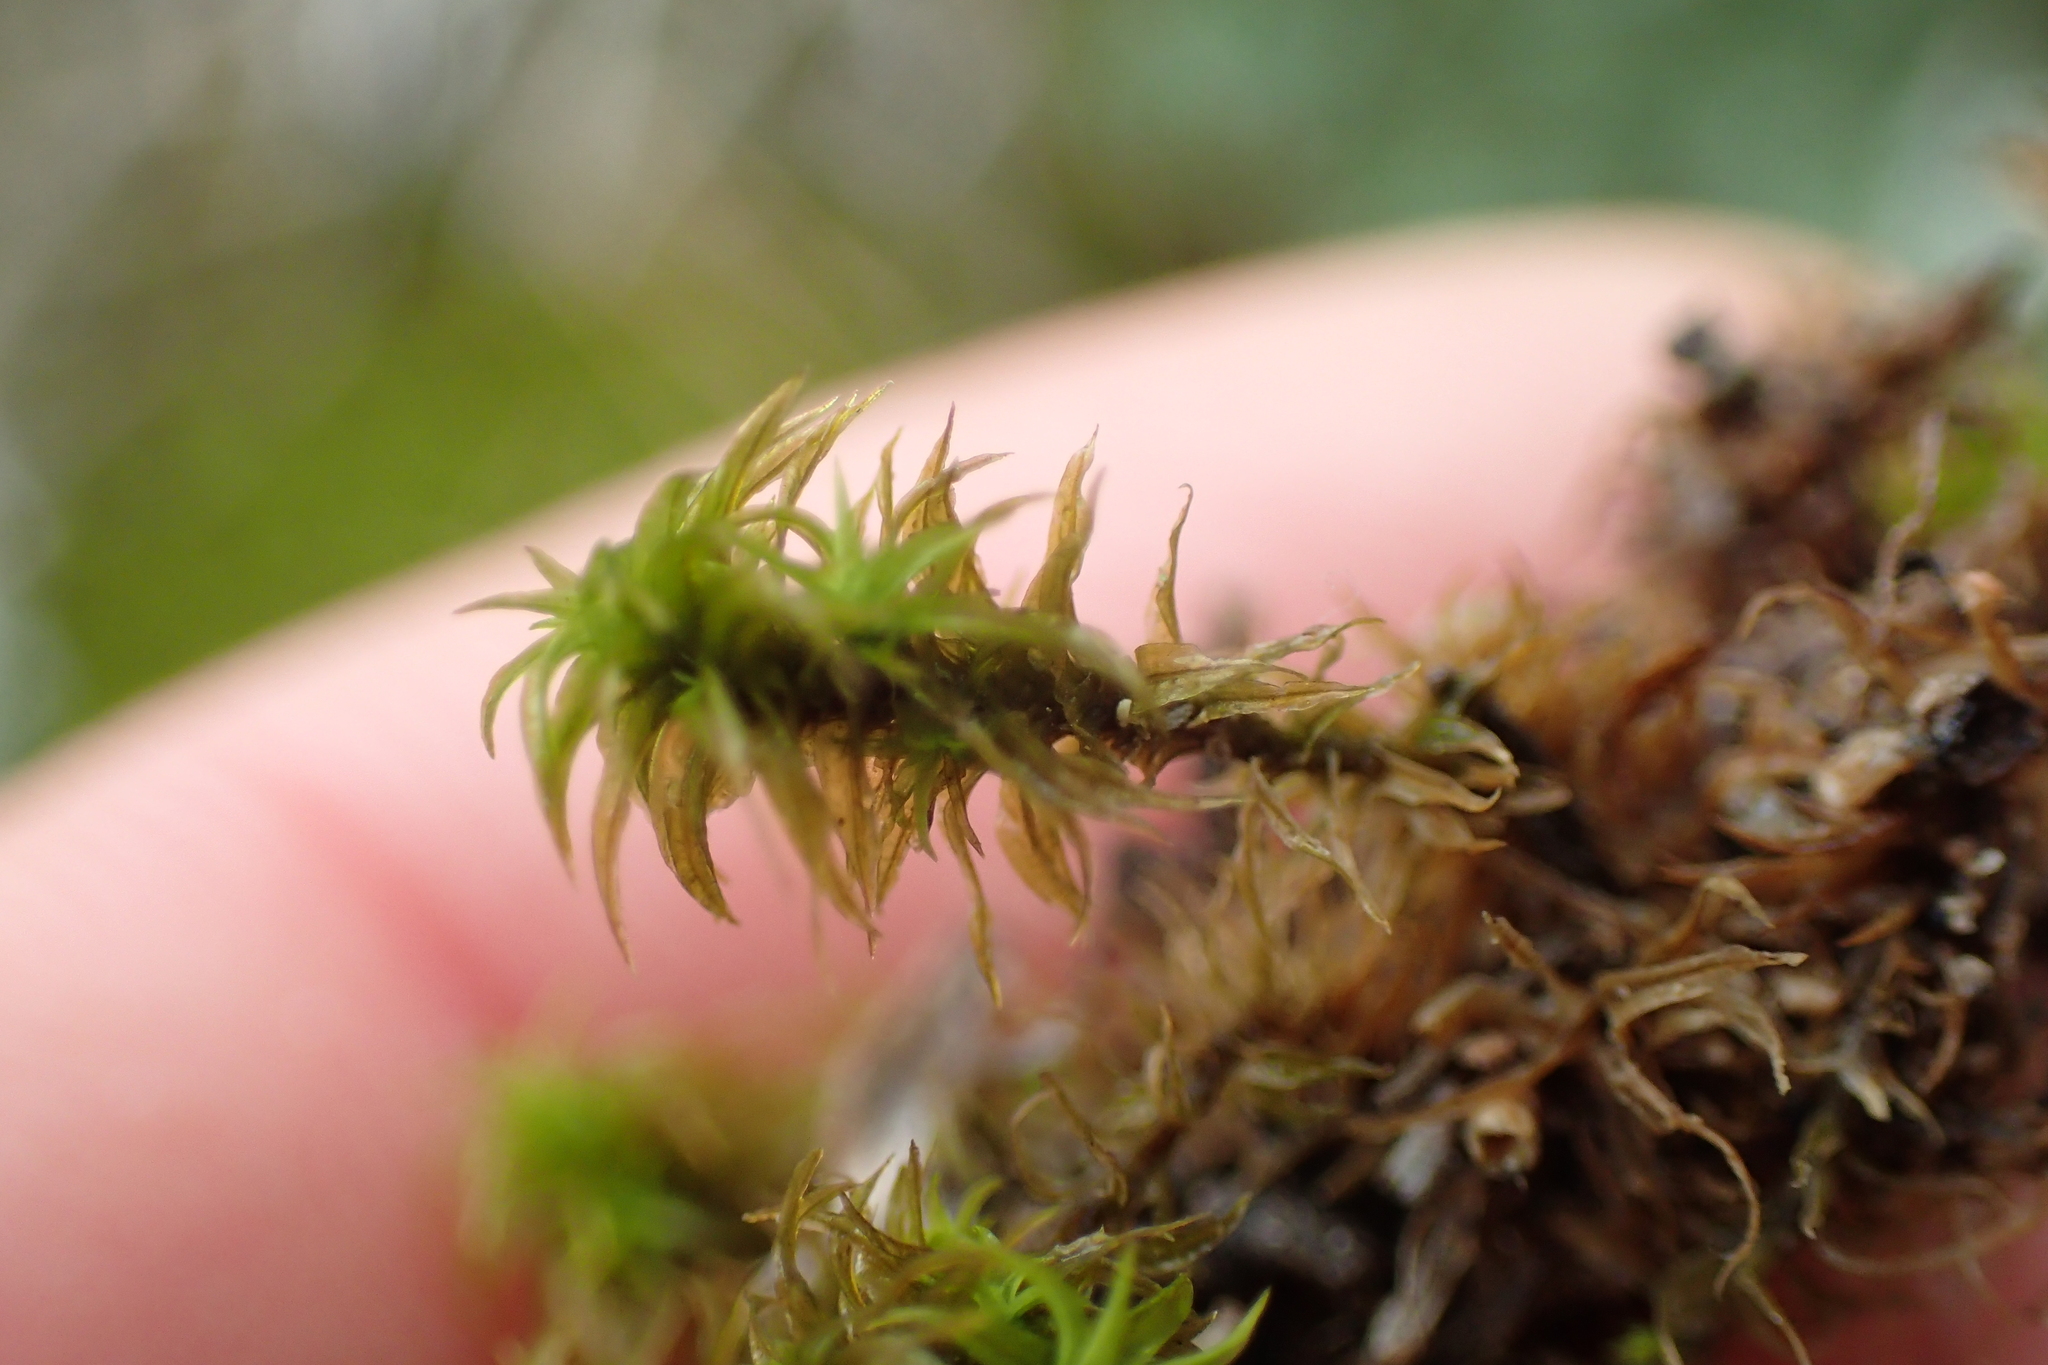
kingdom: Plantae
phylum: Bryophyta
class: Bryopsida
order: Pottiales
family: Pottiaceae
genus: Pleurochaete
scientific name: Pleurochaete squarrosa
